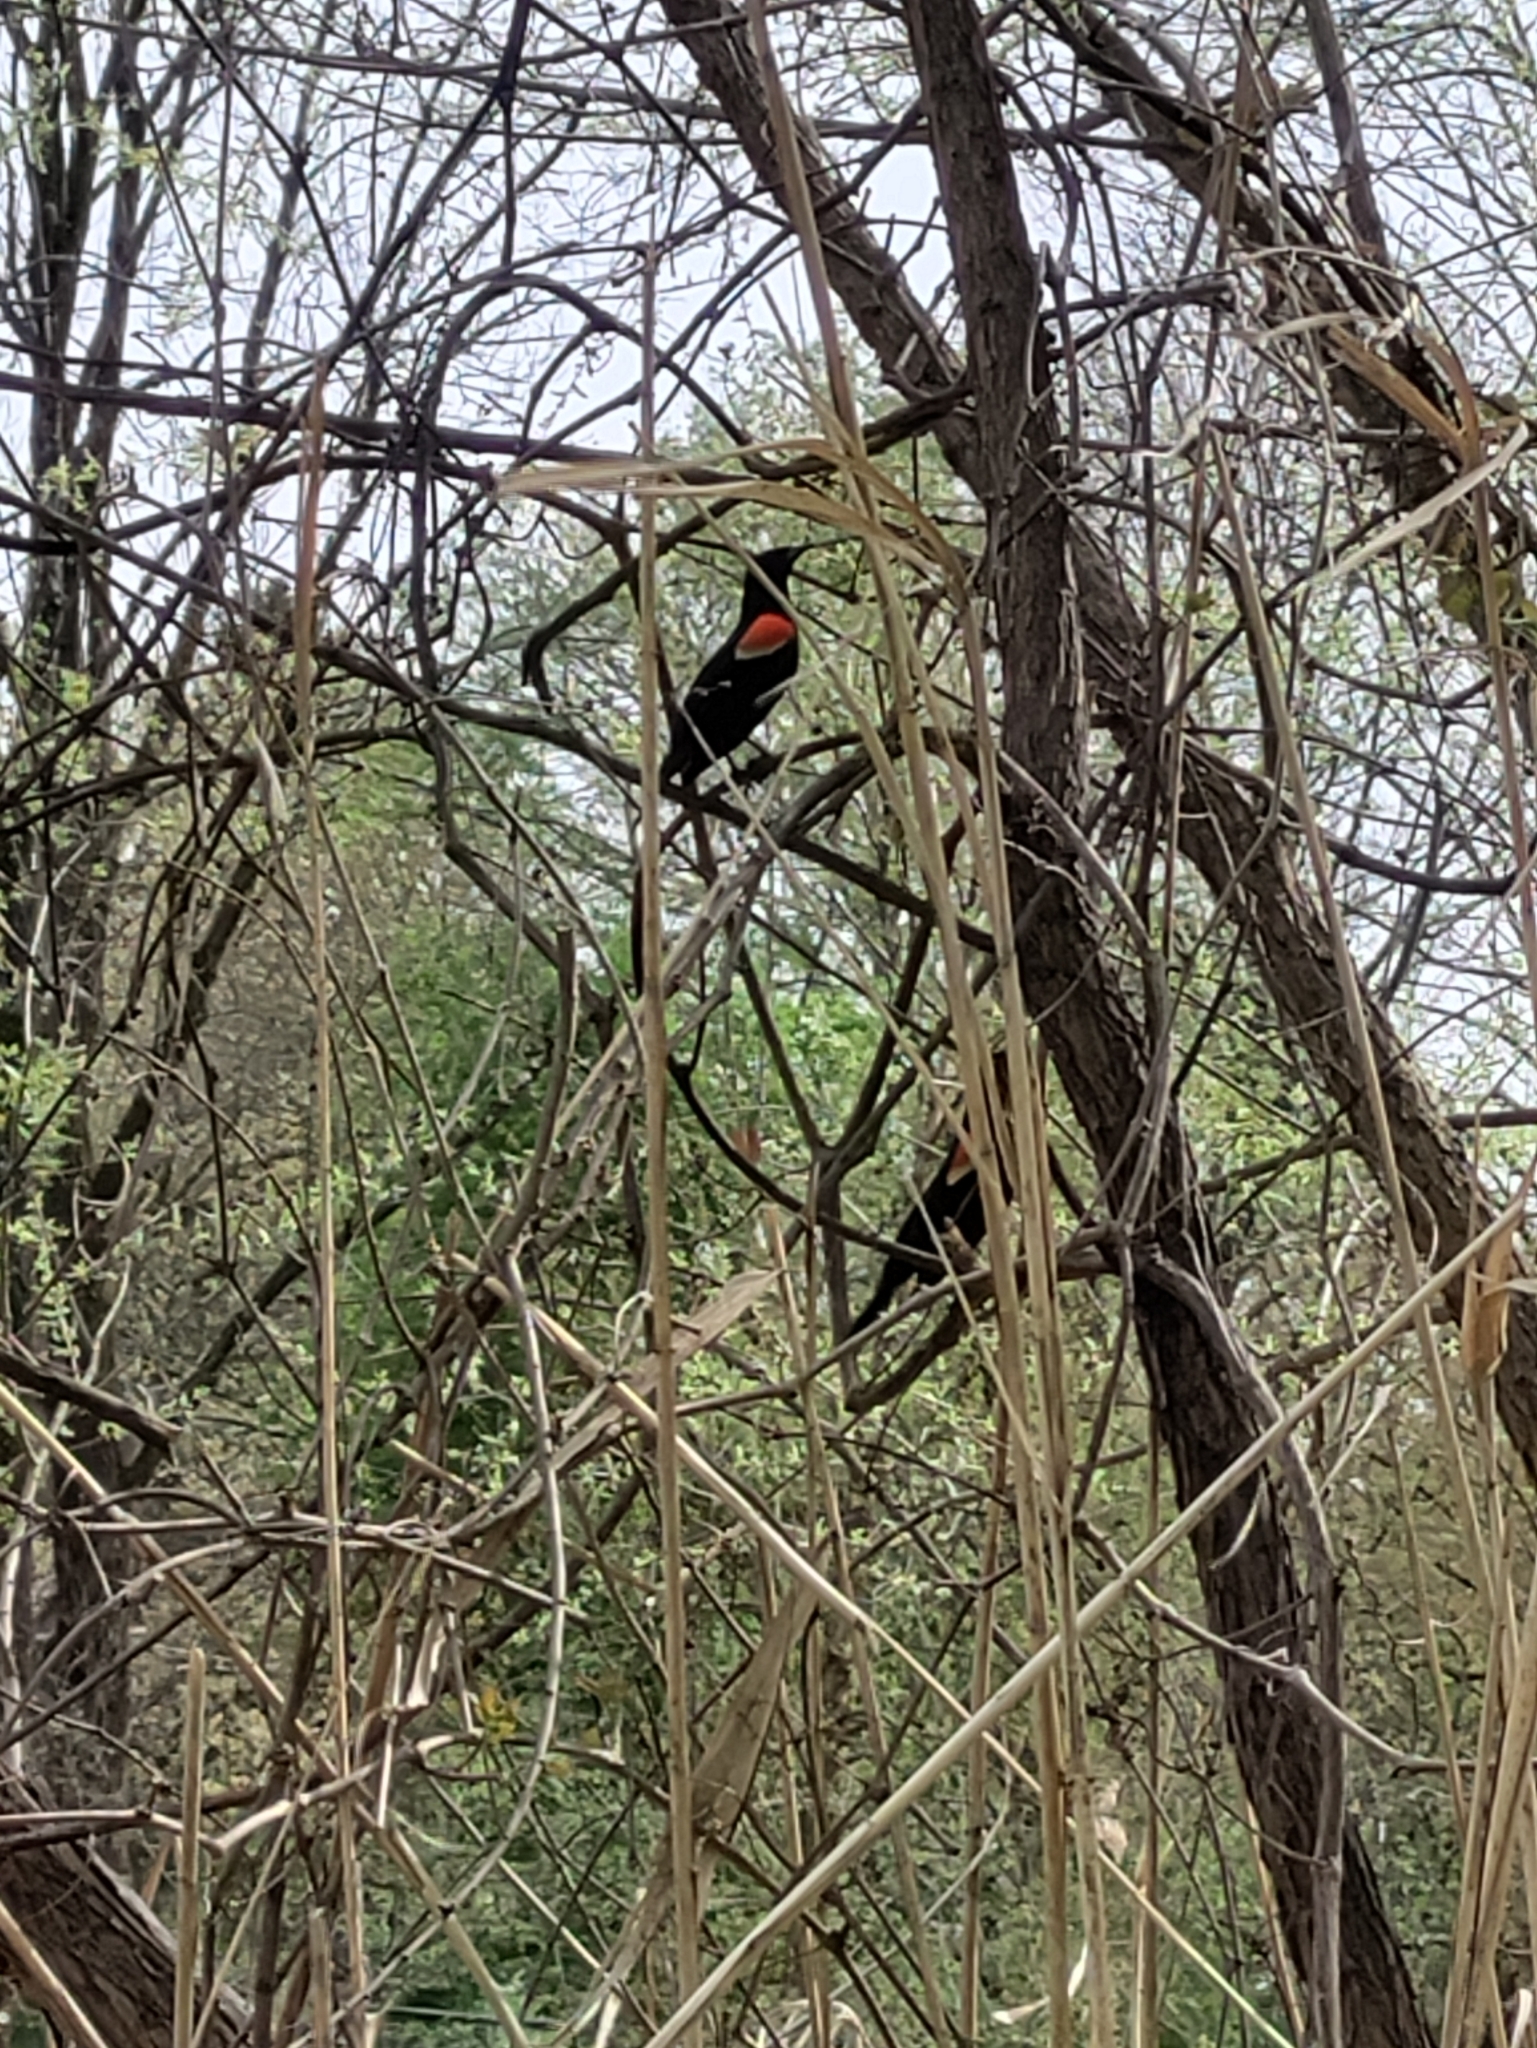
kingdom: Animalia
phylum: Chordata
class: Aves
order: Passeriformes
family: Icteridae
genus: Agelaius
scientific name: Agelaius phoeniceus
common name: Red-winged blackbird
